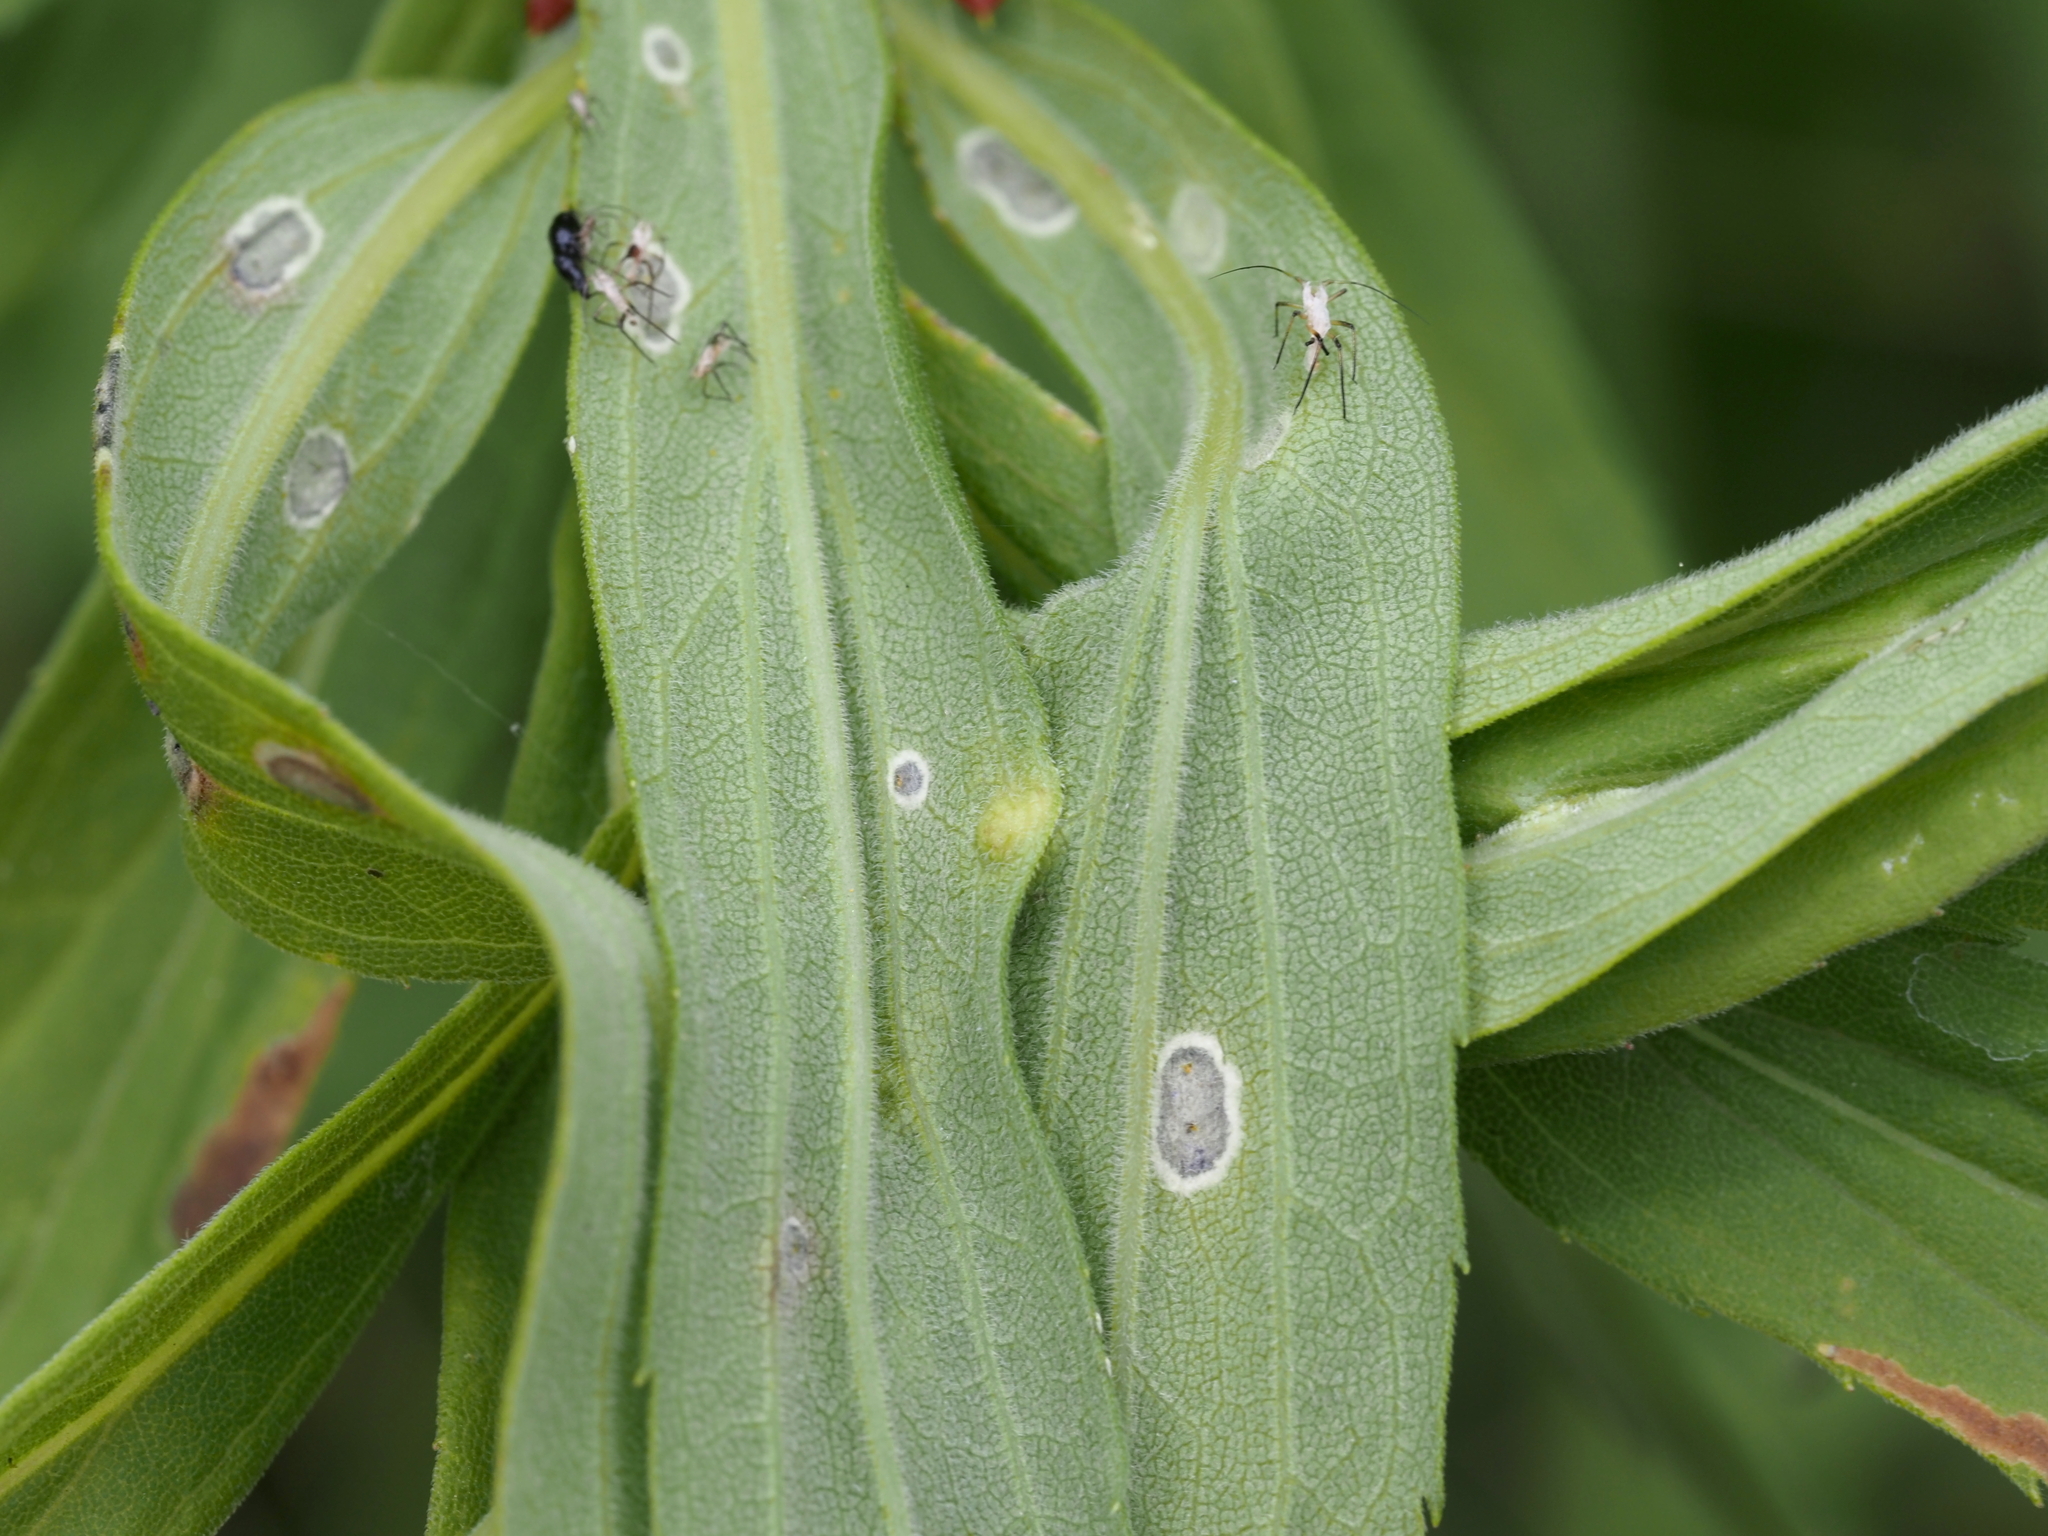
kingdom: Animalia
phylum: Arthropoda
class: Insecta
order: Diptera
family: Cecidomyiidae
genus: Asphondylia
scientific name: Asphondylia solidaginis
